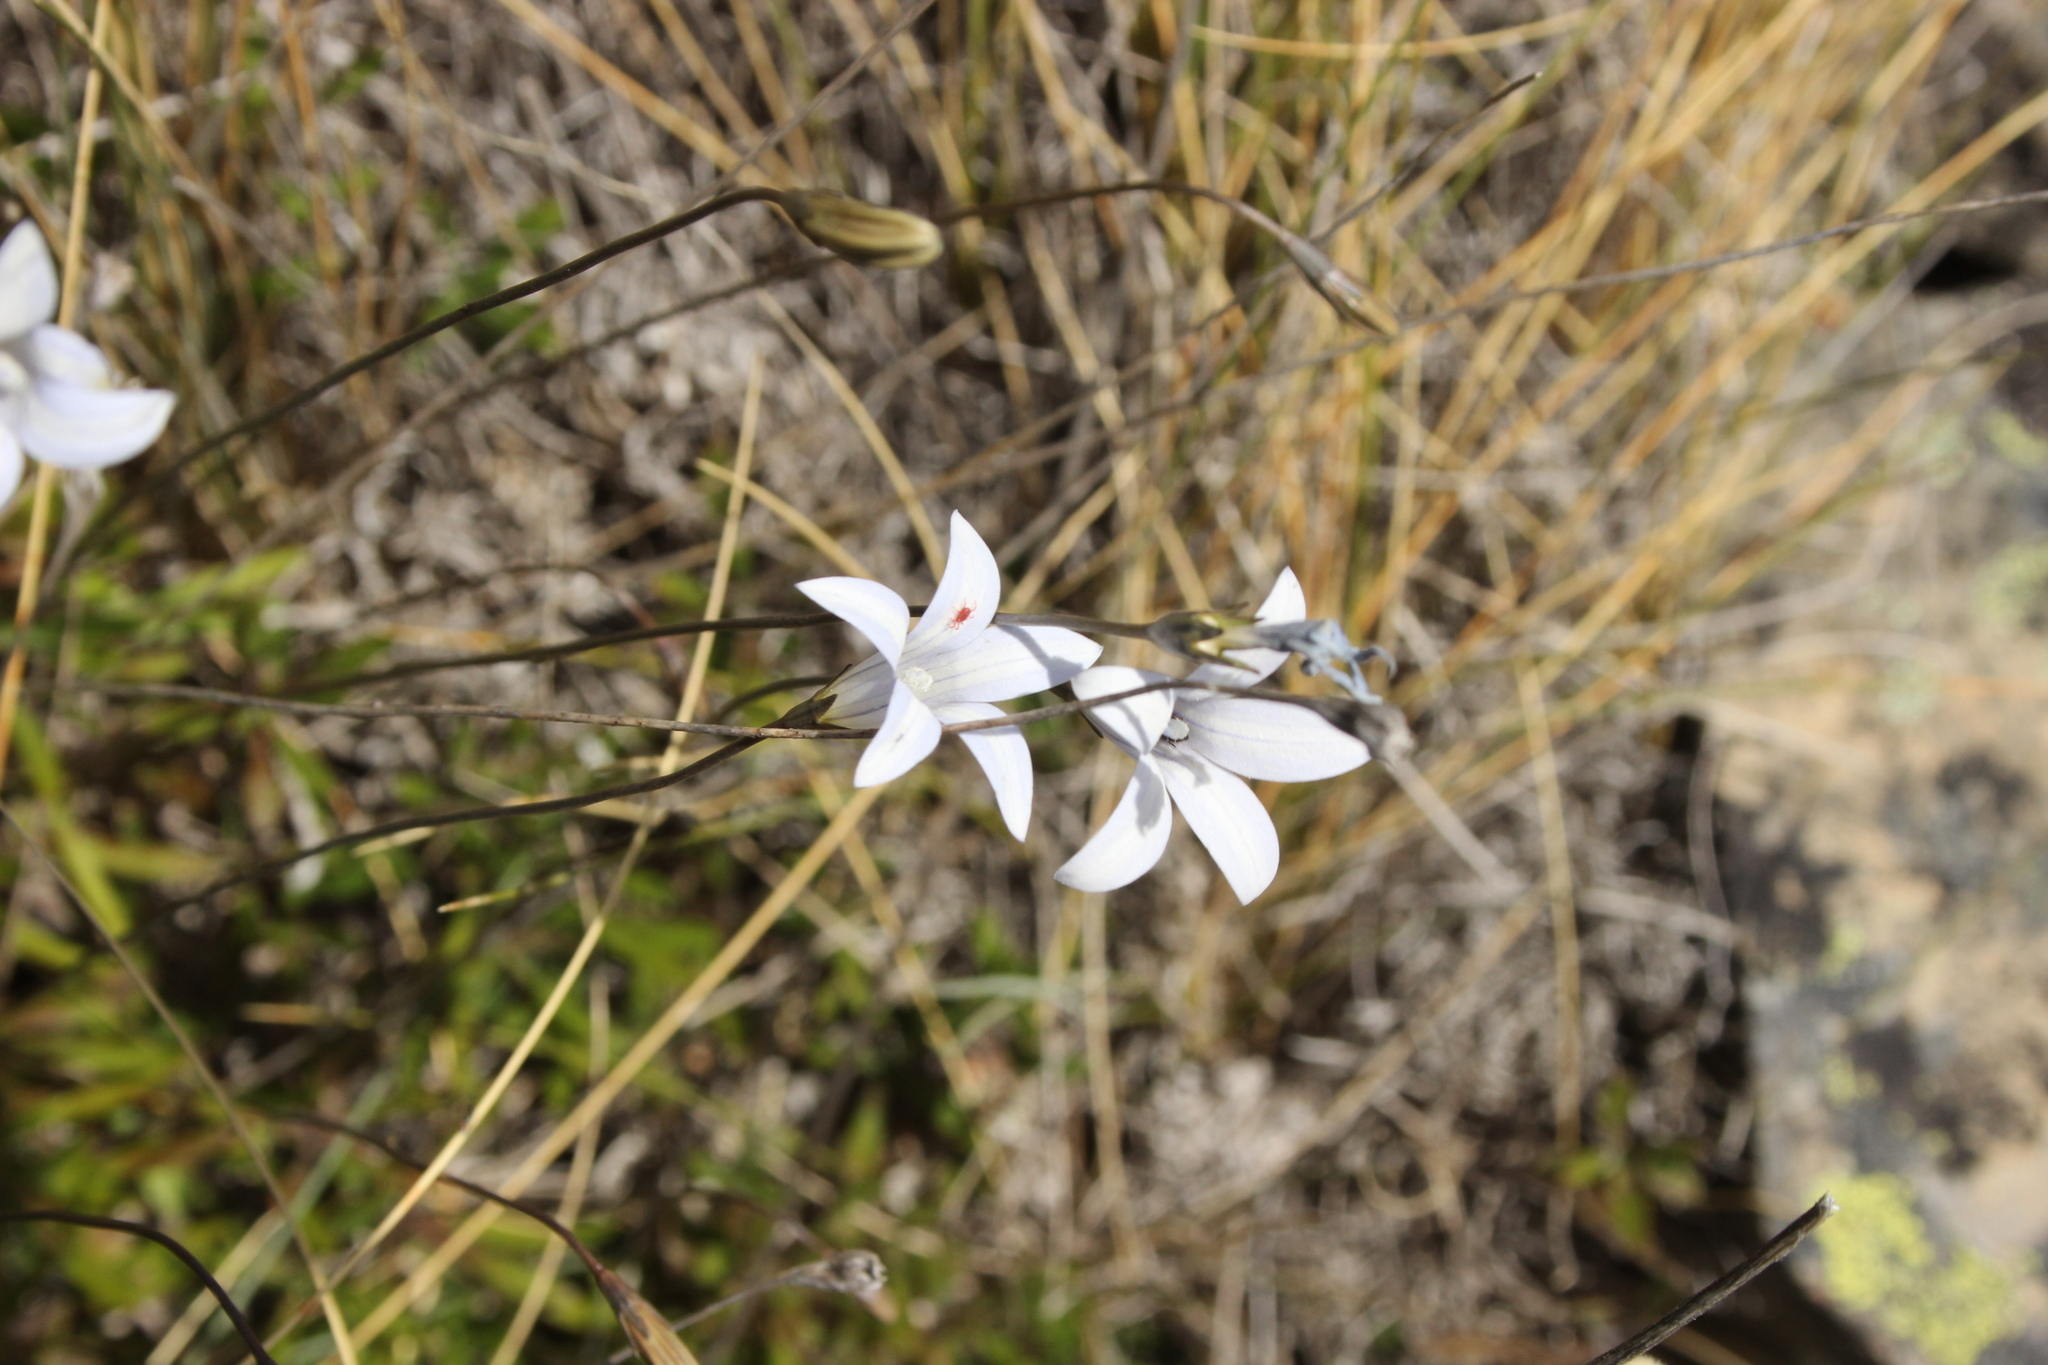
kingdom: Plantae
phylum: Tracheophyta
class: Magnoliopsida
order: Asterales
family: Campanulaceae
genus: Wahlenbergia
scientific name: Wahlenbergia albomarginata
